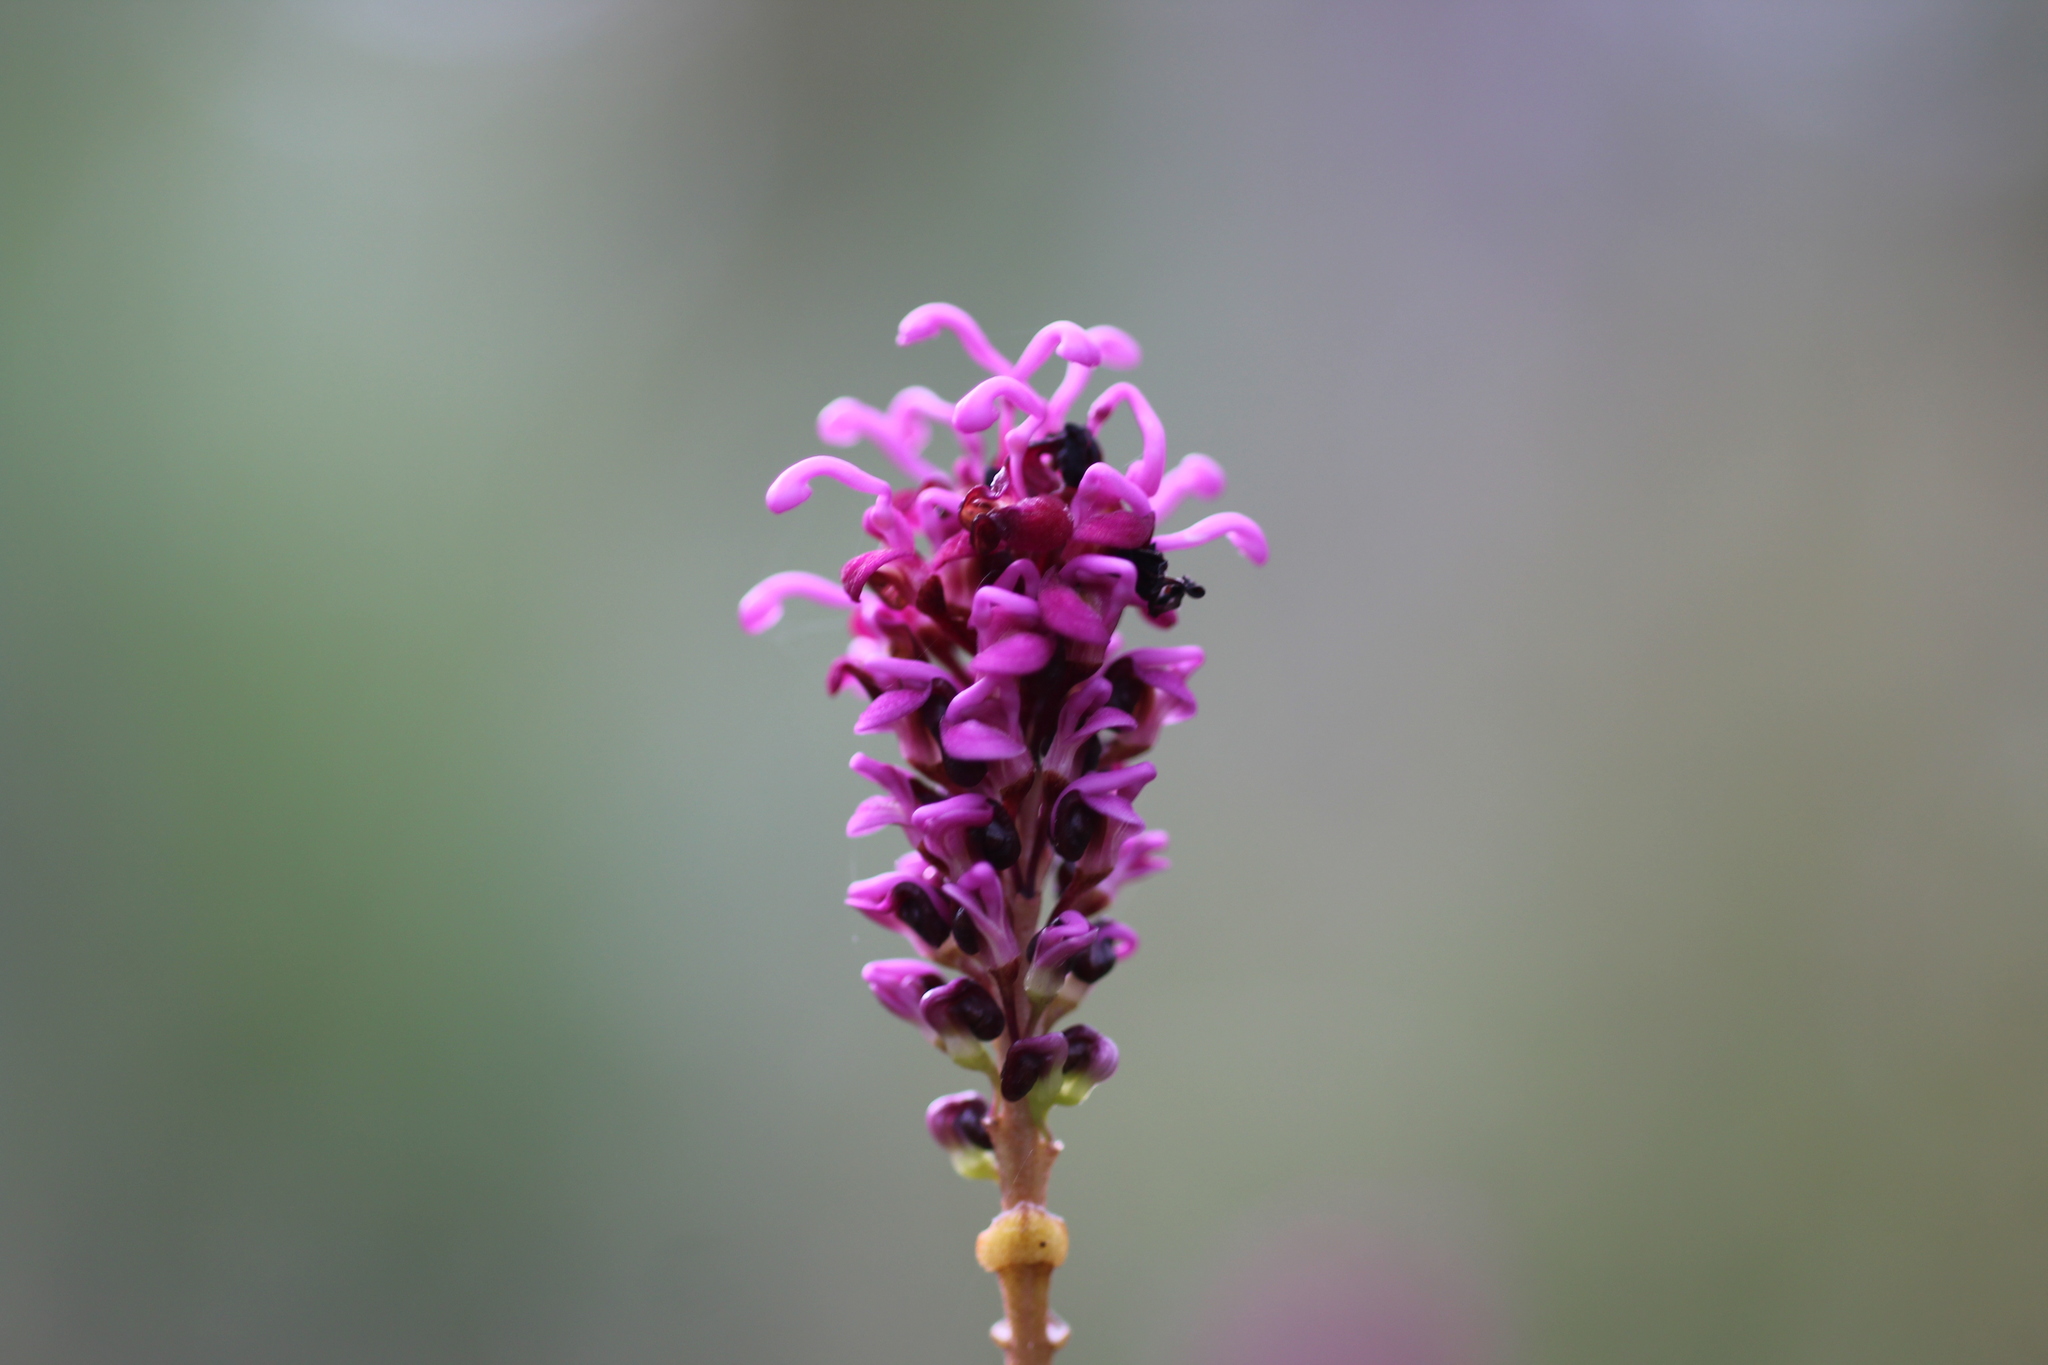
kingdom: Plantae
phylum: Tracheophyta
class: Magnoliopsida
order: Proteales
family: Proteaceae
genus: Grevillea
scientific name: Grevillea quercifolia
